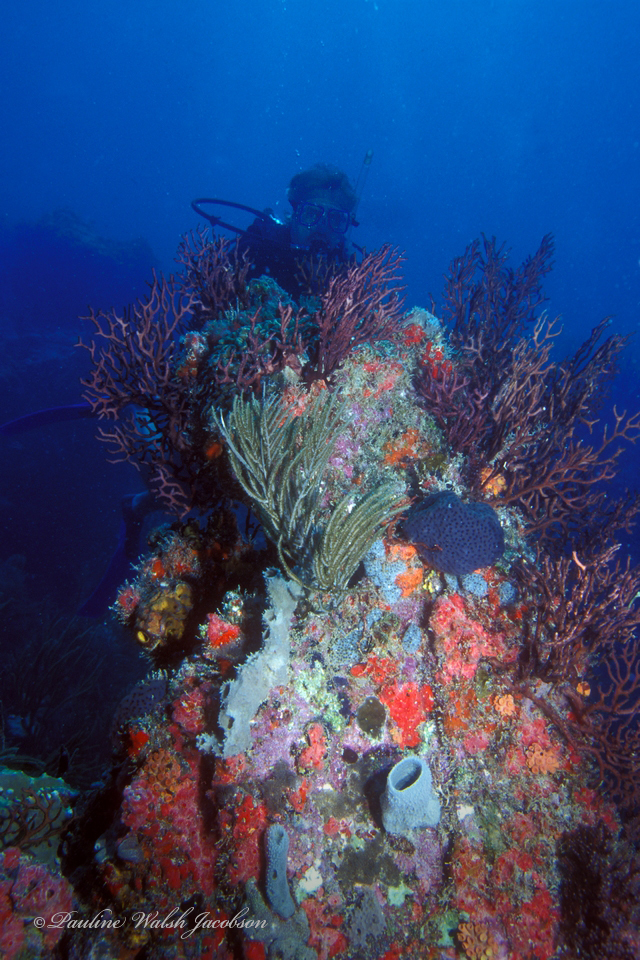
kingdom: Animalia
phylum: Cnidaria
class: Anthozoa
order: Malacalcyonacea
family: Melithaeidae
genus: Iciligorgia
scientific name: Iciligorgia schrammi
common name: Black sea fan
